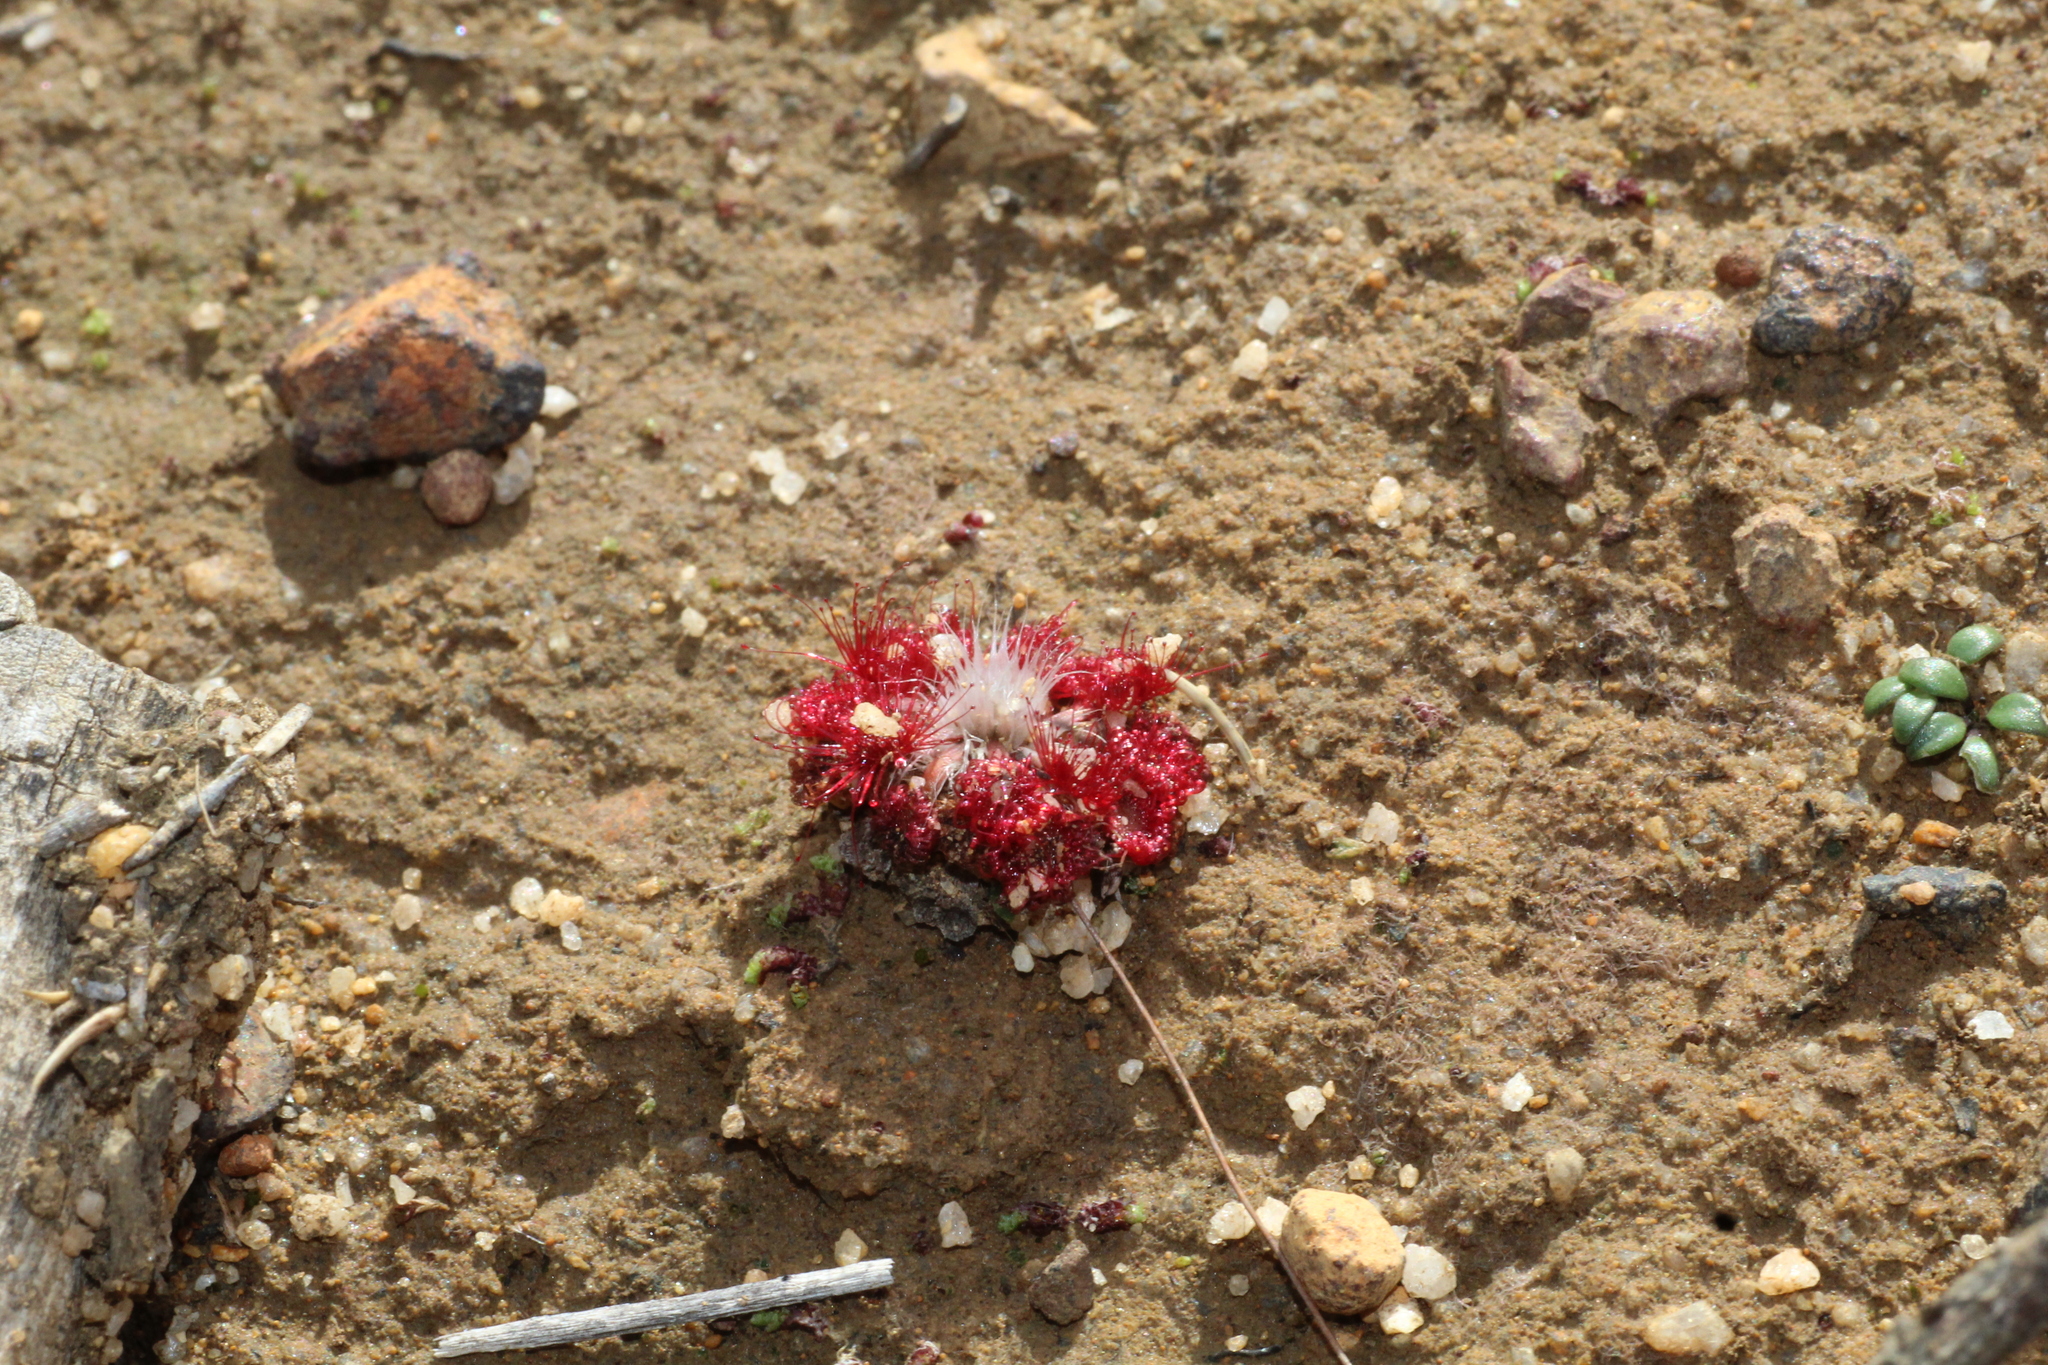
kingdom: Plantae
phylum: Tracheophyta
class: Magnoliopsida
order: Caryophyllales
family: Droseraceae
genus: Drosera
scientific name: Drosera spilos
